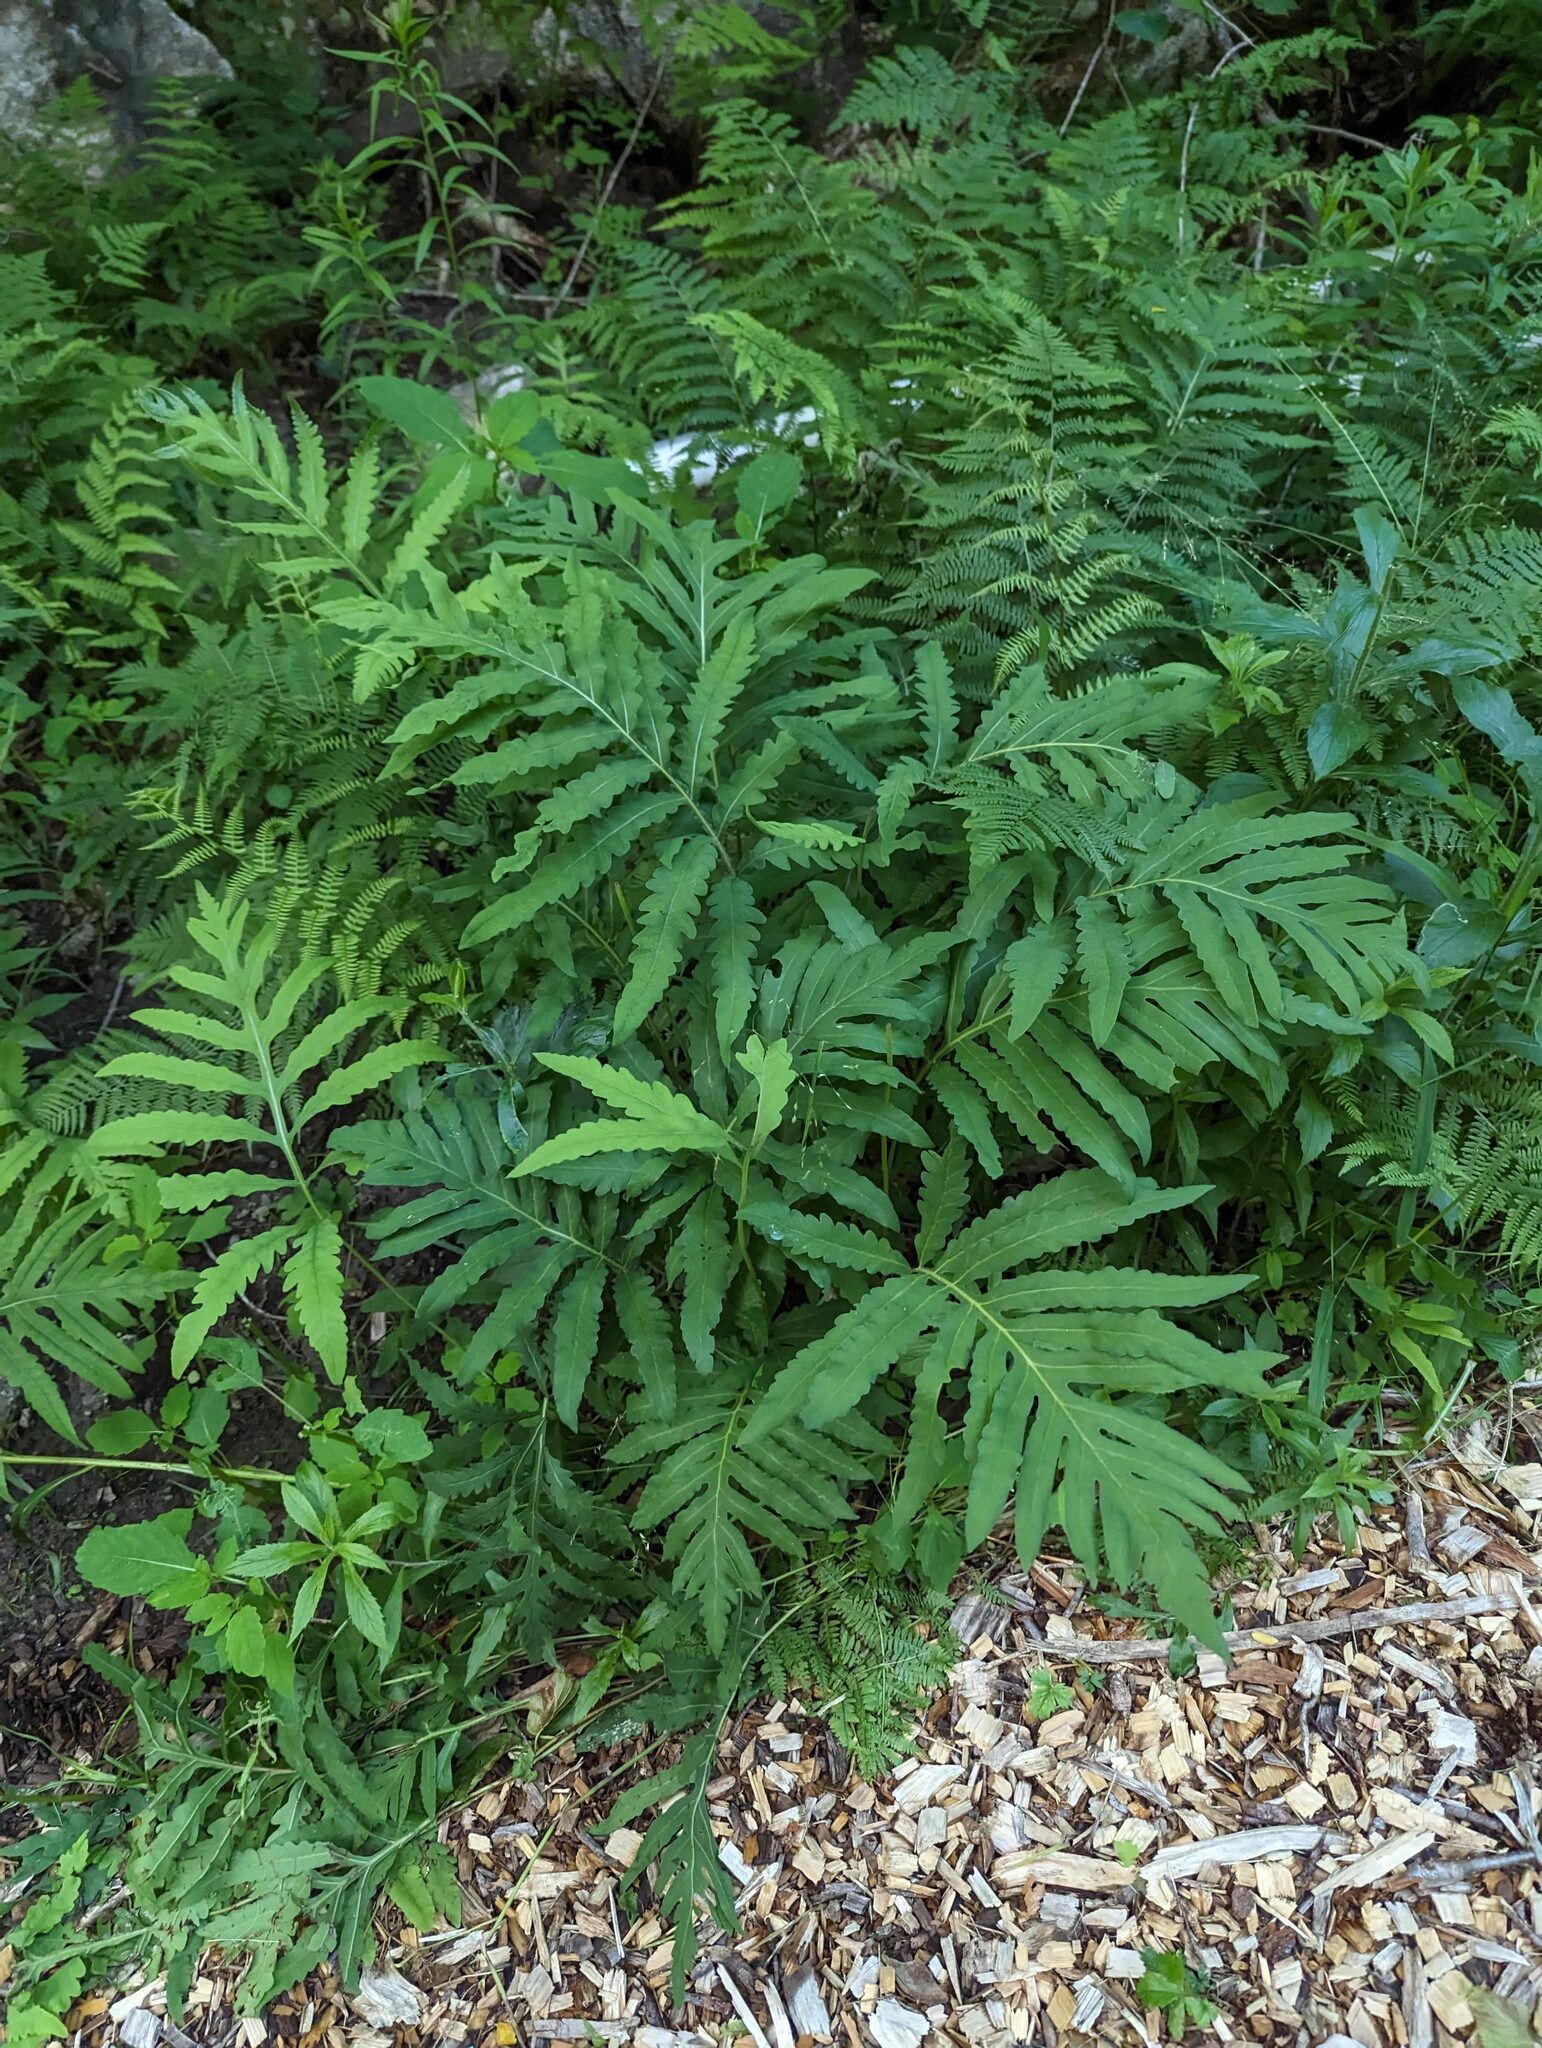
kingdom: Plantae
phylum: Tracheophyta
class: Polypodiopsida
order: Polypodiales
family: Onocleaceae
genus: Onoclea
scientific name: Onoclea sensibilis
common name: Sensitive fern
